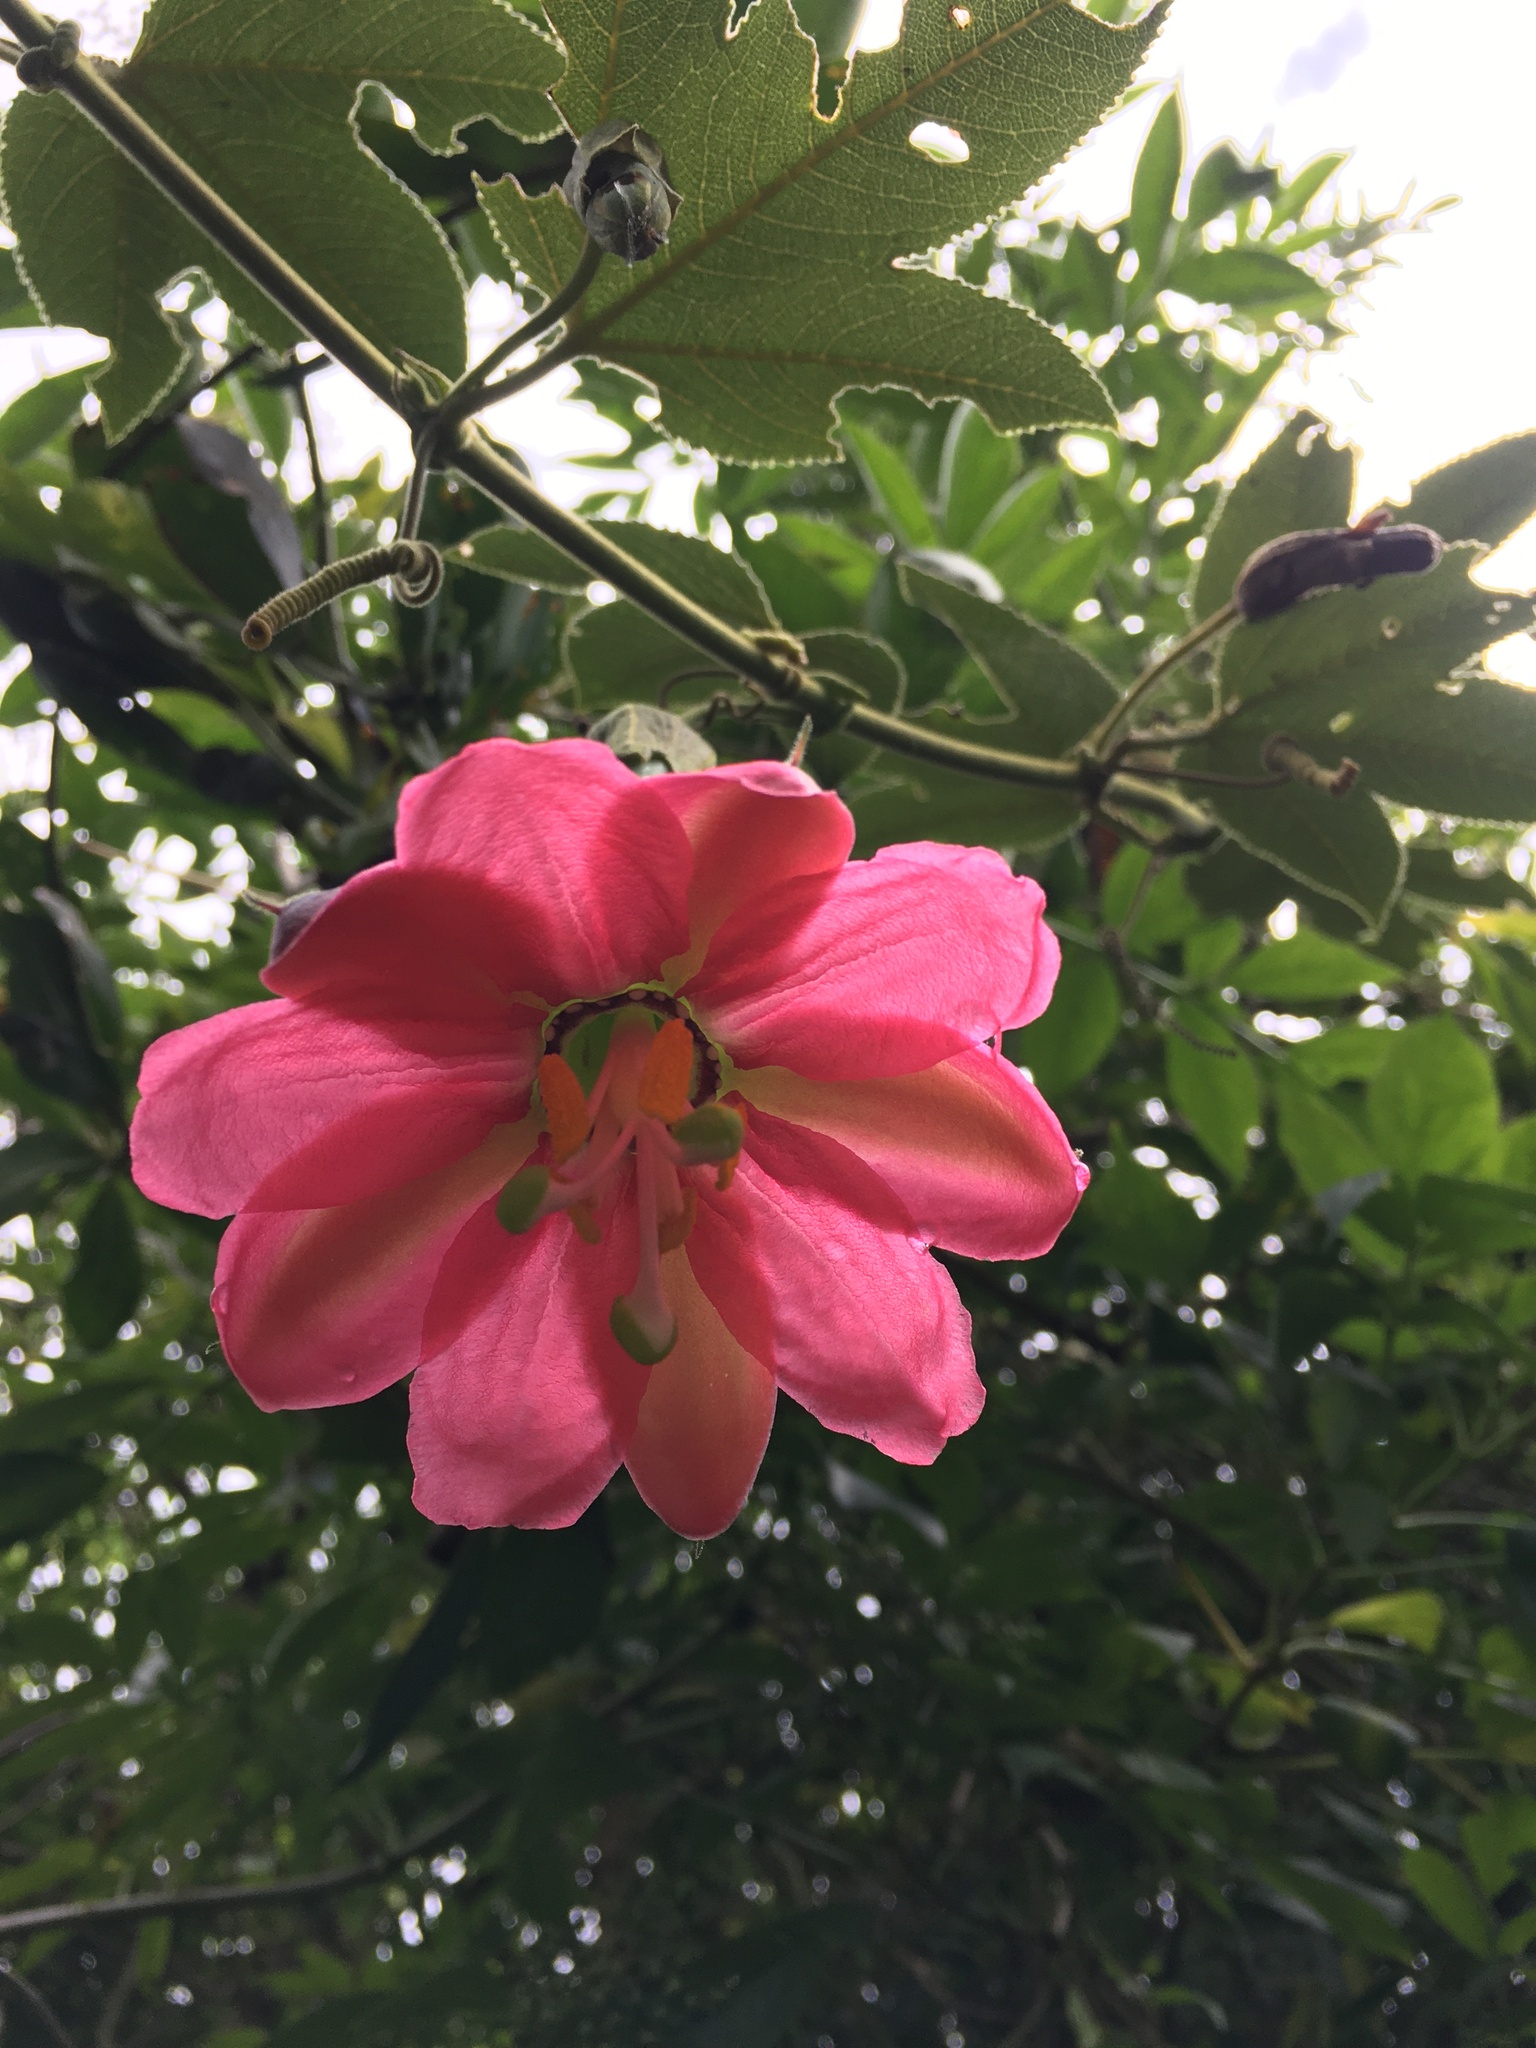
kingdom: Plantae
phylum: Tracheophyta
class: Magnoliopsida
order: Malpighiales
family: Passifloraceae
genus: Passiflora
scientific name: Passiflora tripartita
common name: Banana poka
